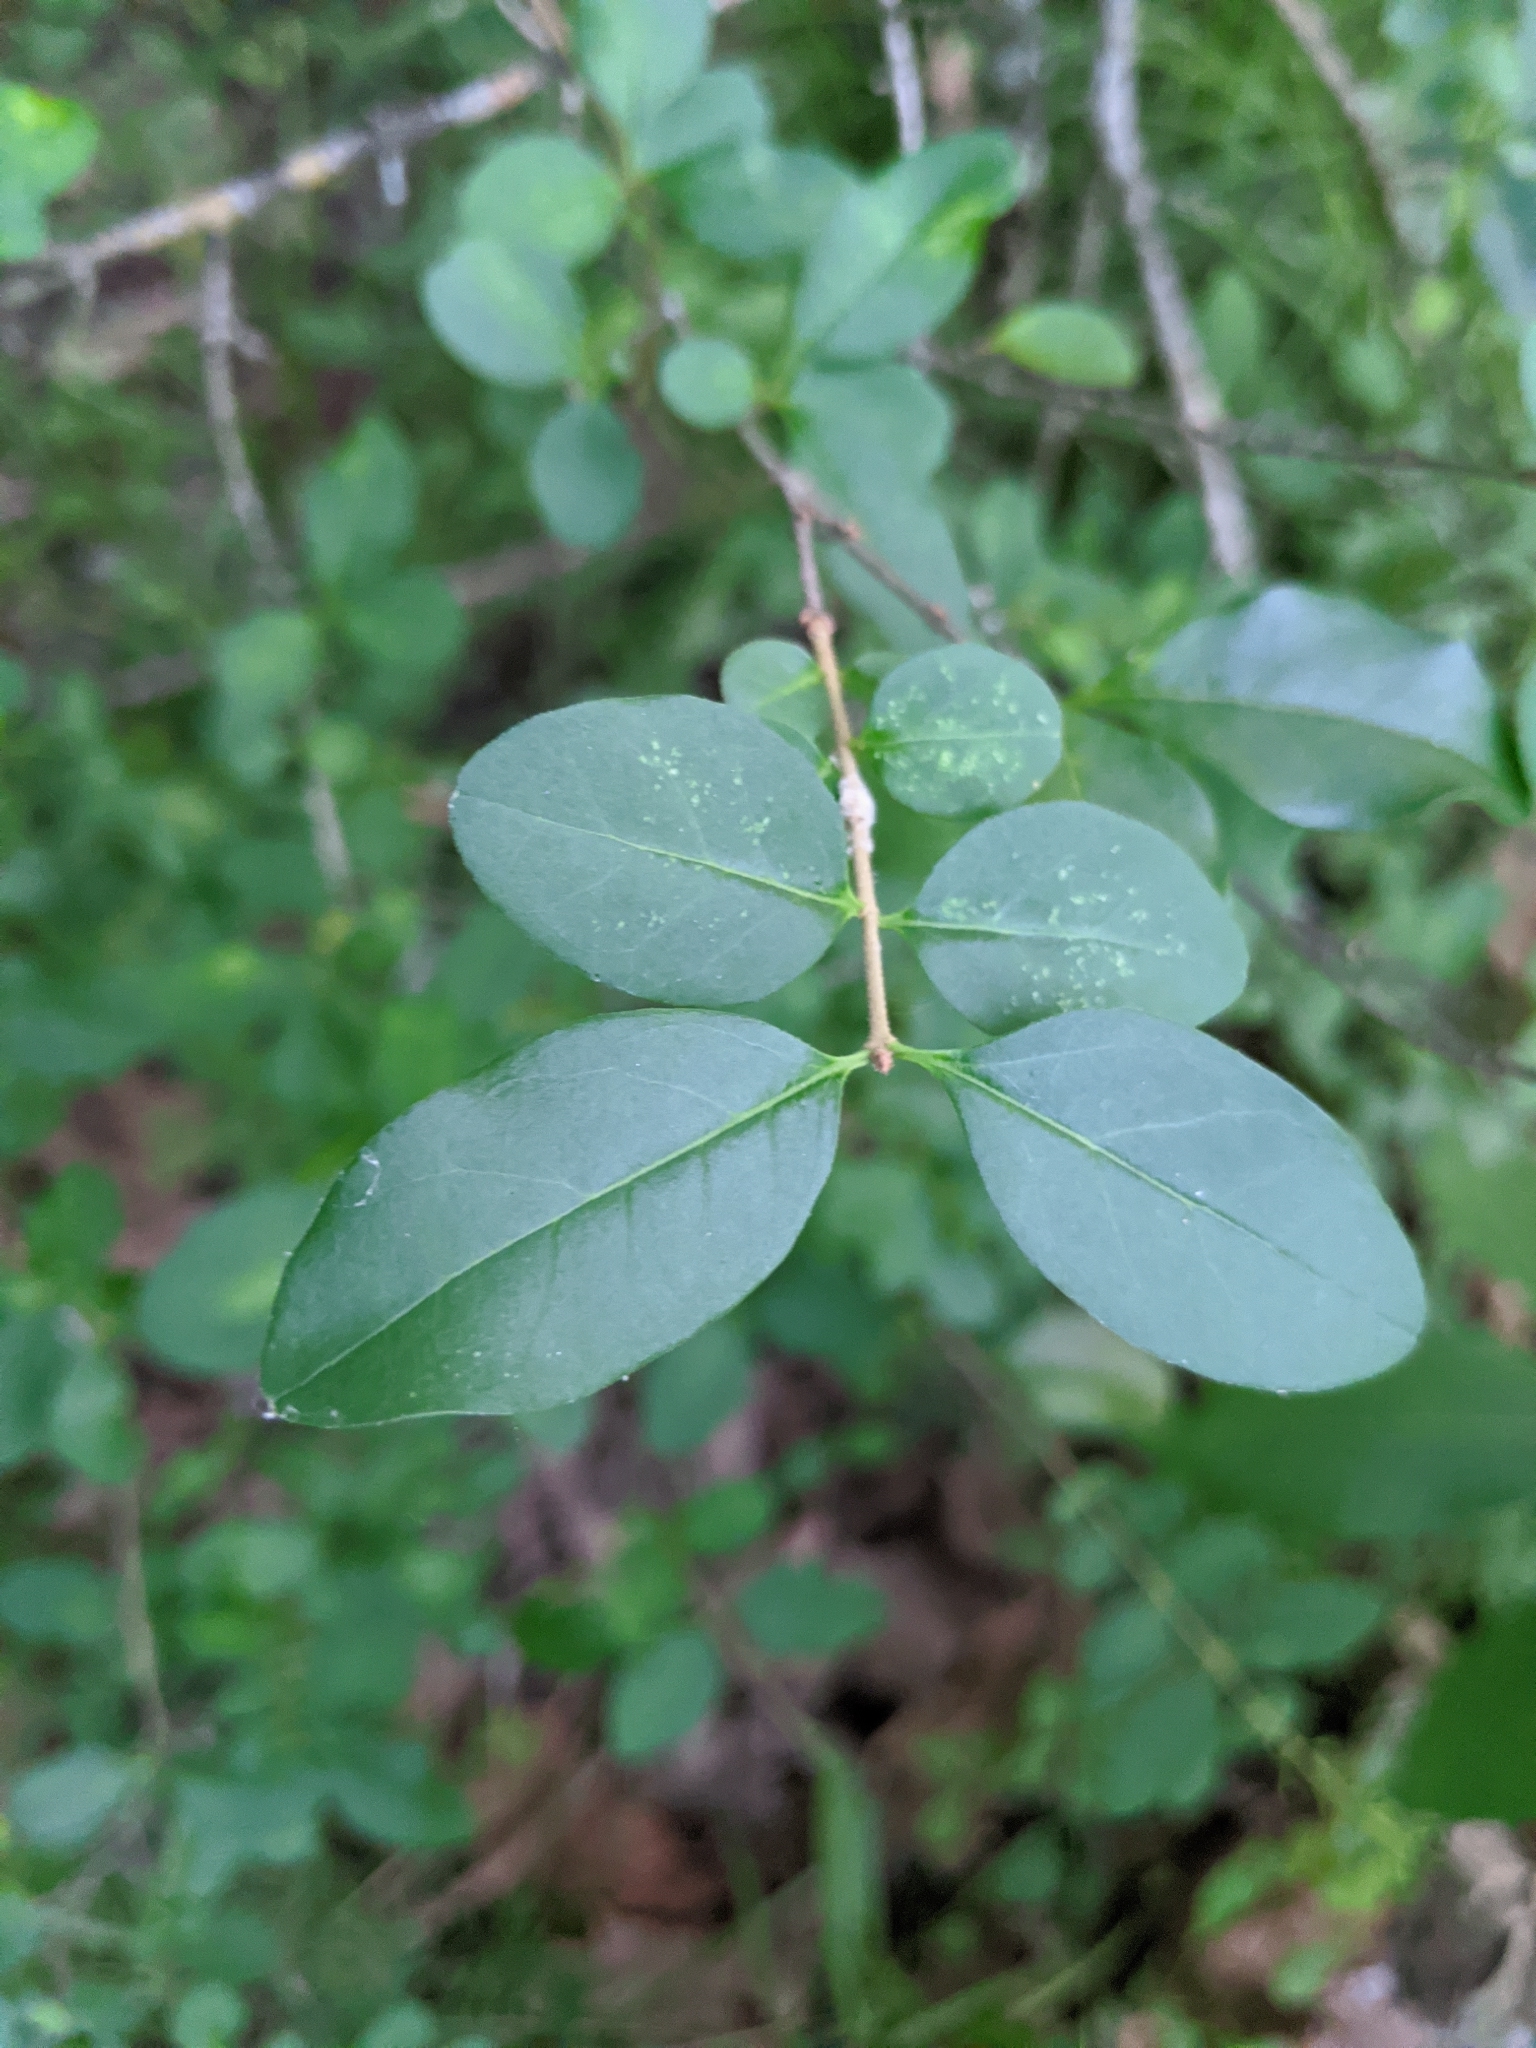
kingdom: Plantae
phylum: Tracheophyta
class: Magnoliopsida
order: Lamiales
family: Oleaceae
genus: Ligustrum
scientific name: Ligustrum sinense
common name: Chinese privet
